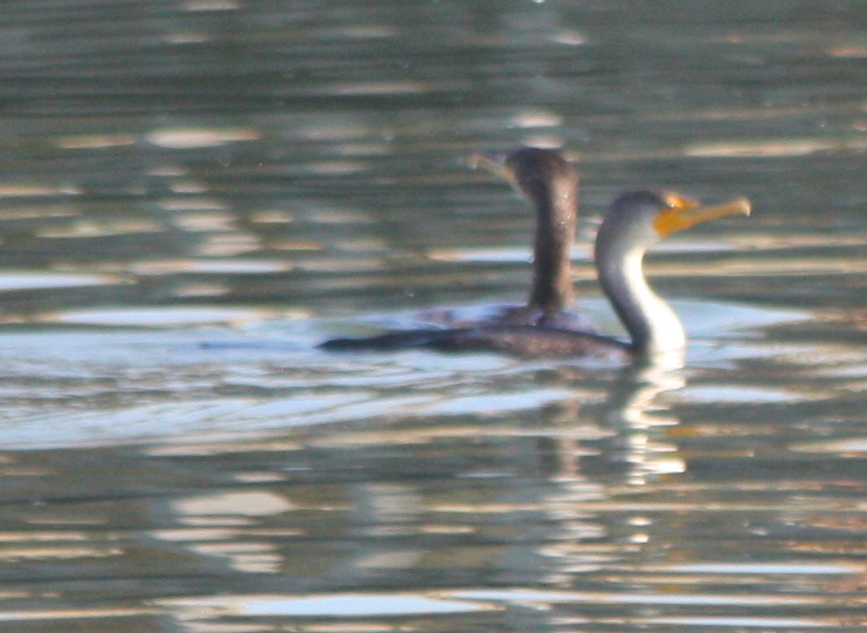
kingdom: Animalia
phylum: Chordata
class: Aves
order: Suliformes
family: Phalacrocoracidae
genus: Phalacrocorax
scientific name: Phalacrocorax auritus
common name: Double-crested cormorant
